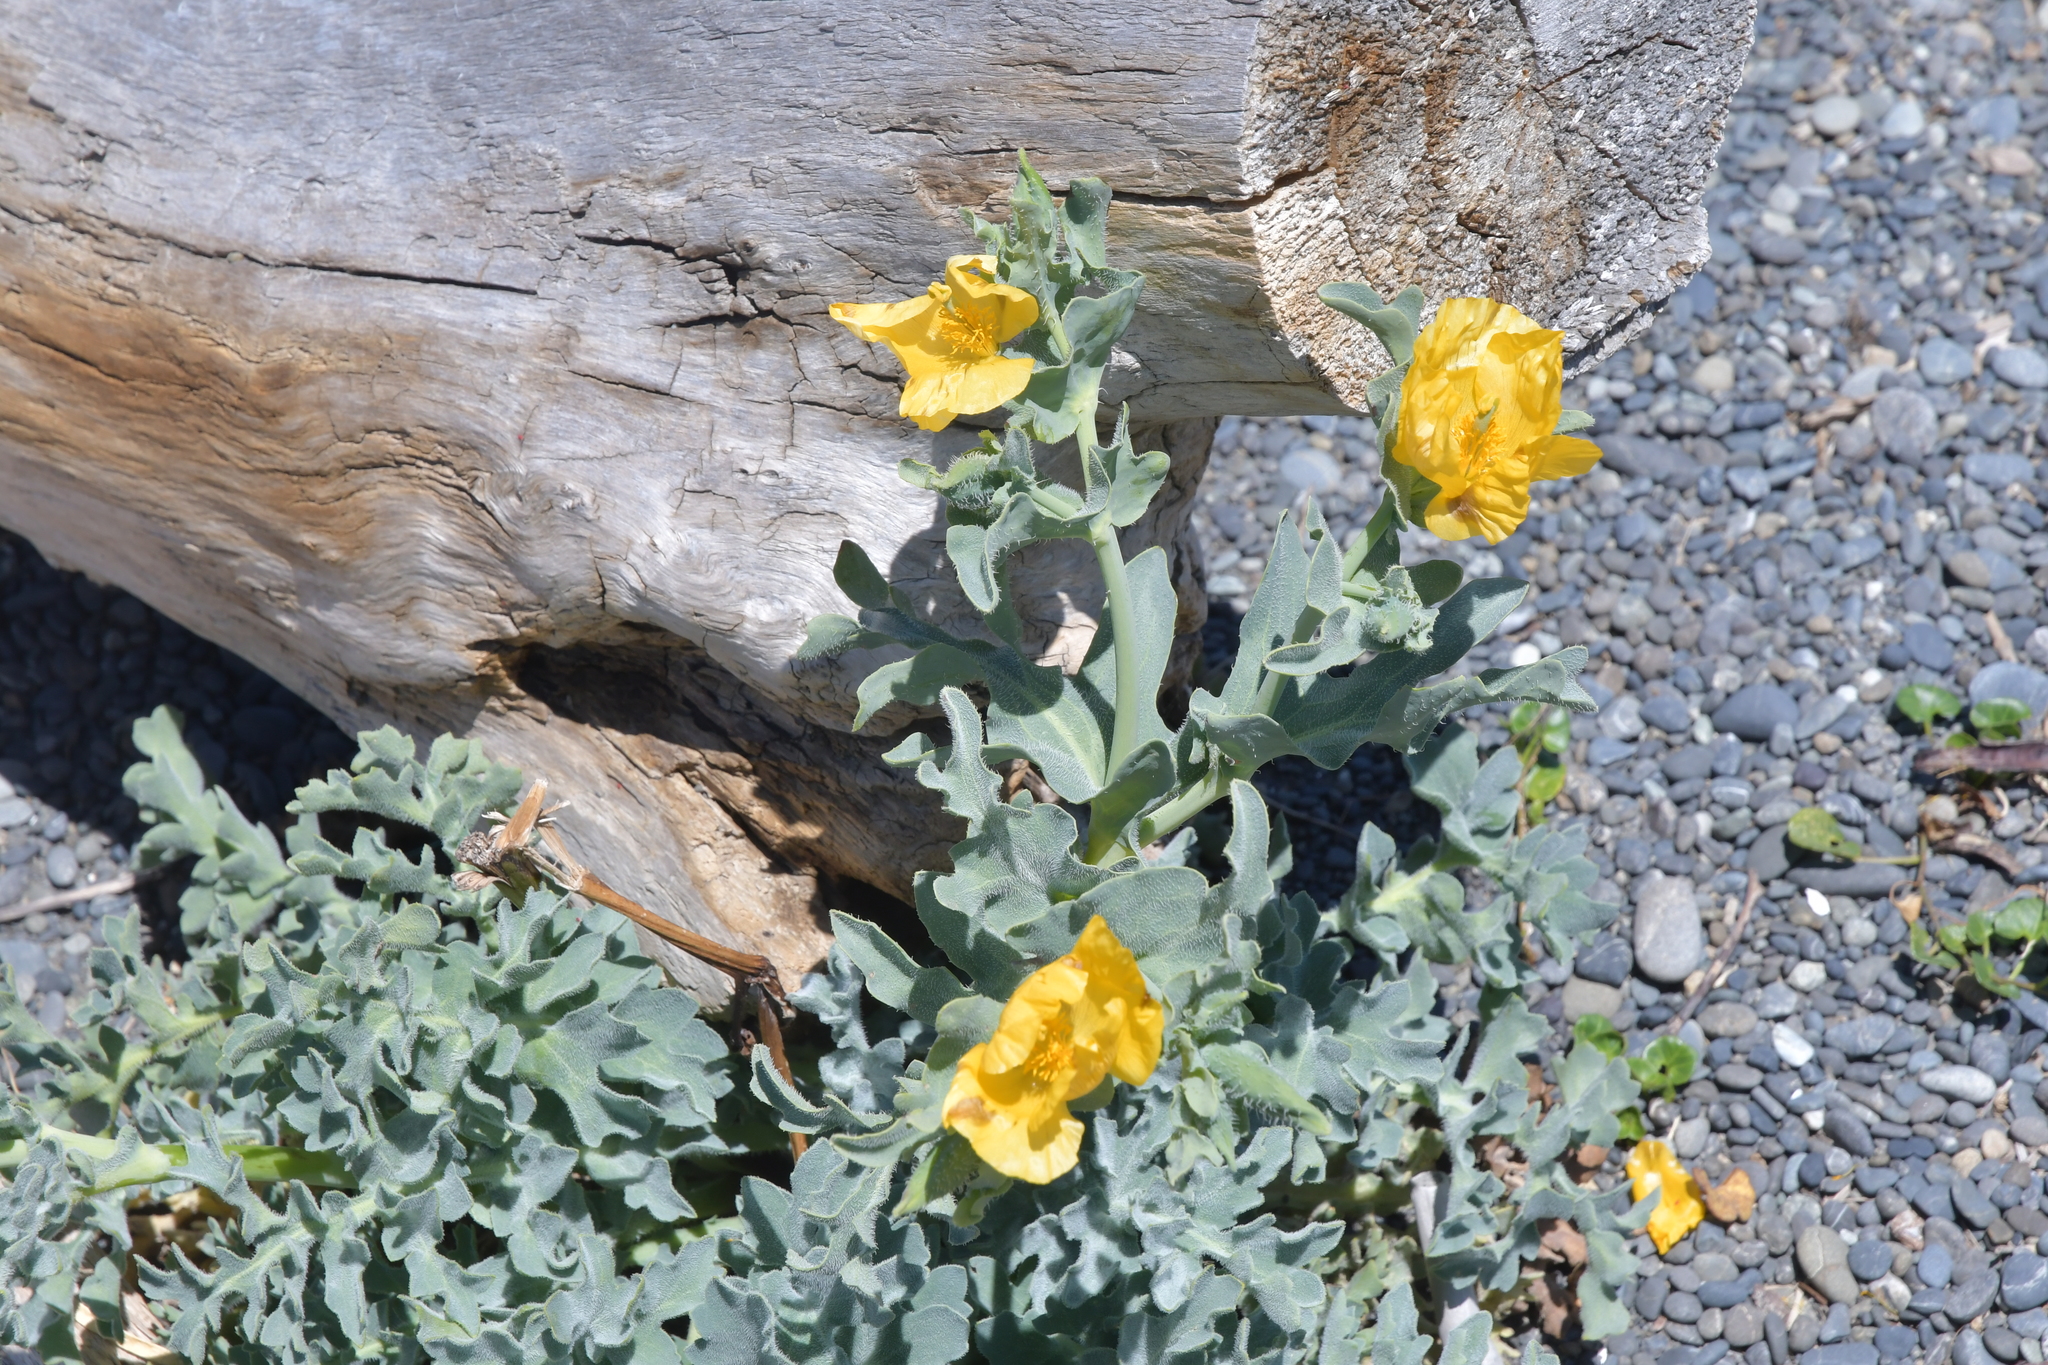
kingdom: Plantae
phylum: Tracheophyta
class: Magnoliopsida
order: Ranunculales
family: Papaveraceae
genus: Glaucium
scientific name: Glaucium flavum
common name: Yellow horned-poppy
